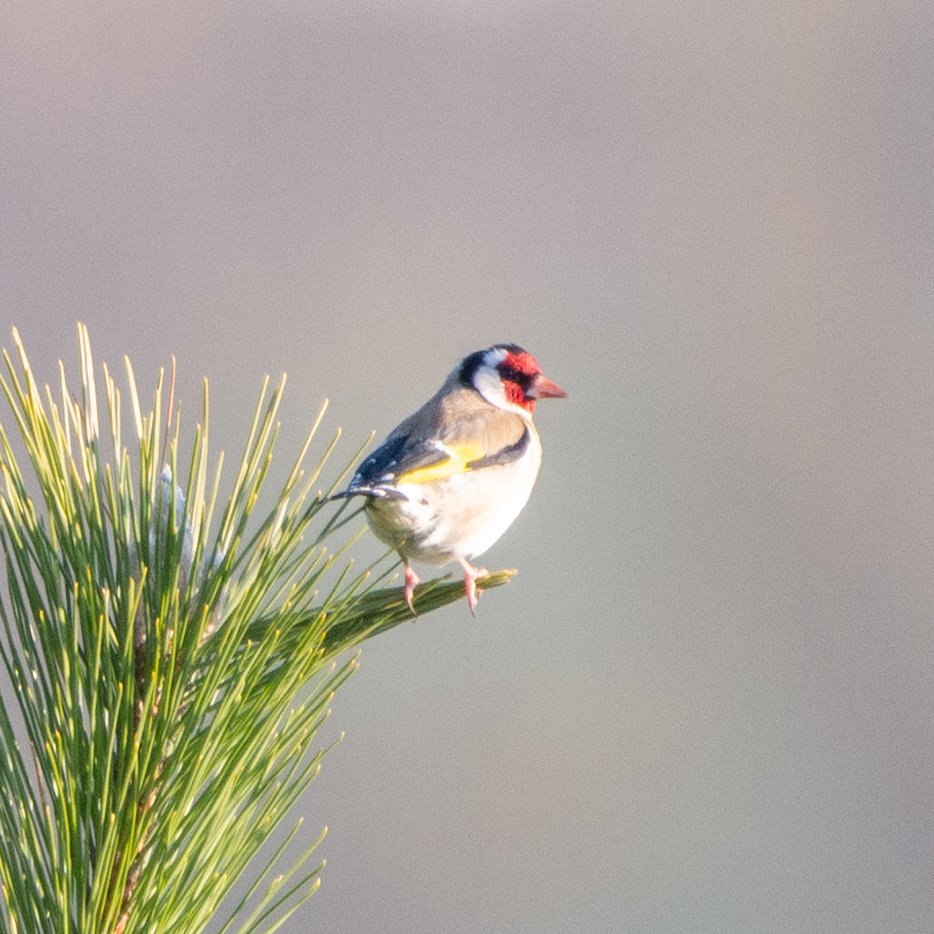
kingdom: Animalia
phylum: Chordata
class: Aves
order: Passeriformes
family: Fringillidae
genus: Carduelis
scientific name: Carduelis carduelis
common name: European goldfinch
